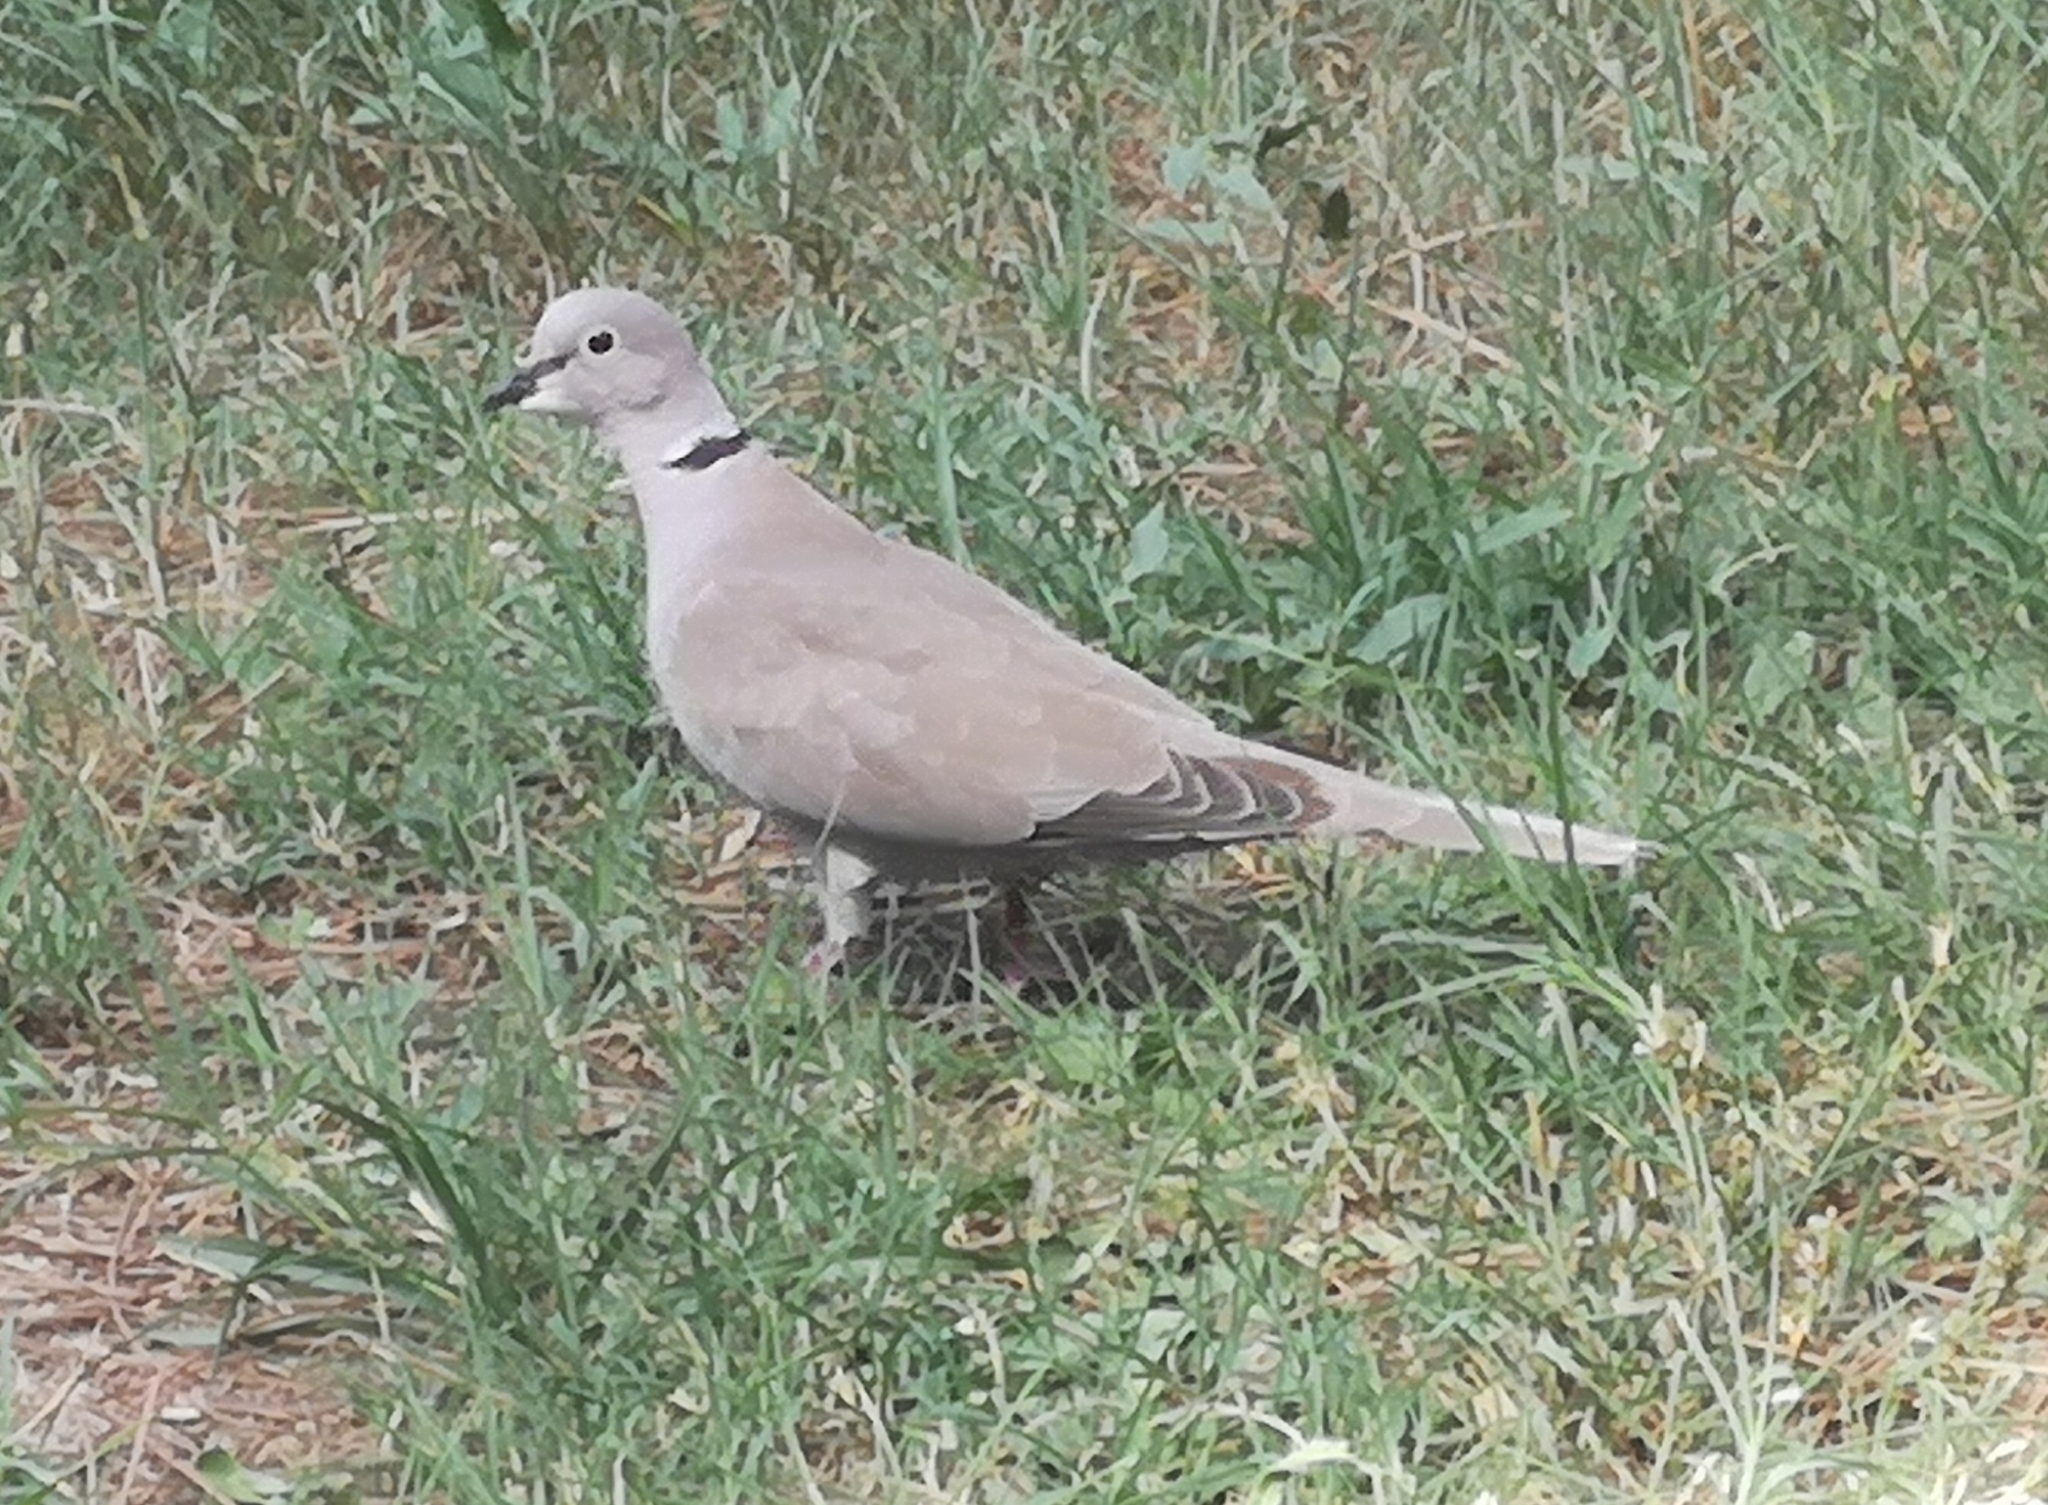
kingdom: Animalia
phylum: Chordata
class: Aves
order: Columbiformes
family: Columbidae
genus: Streptopelia
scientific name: Streptopelia decaocto
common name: Eurasian collared dove
